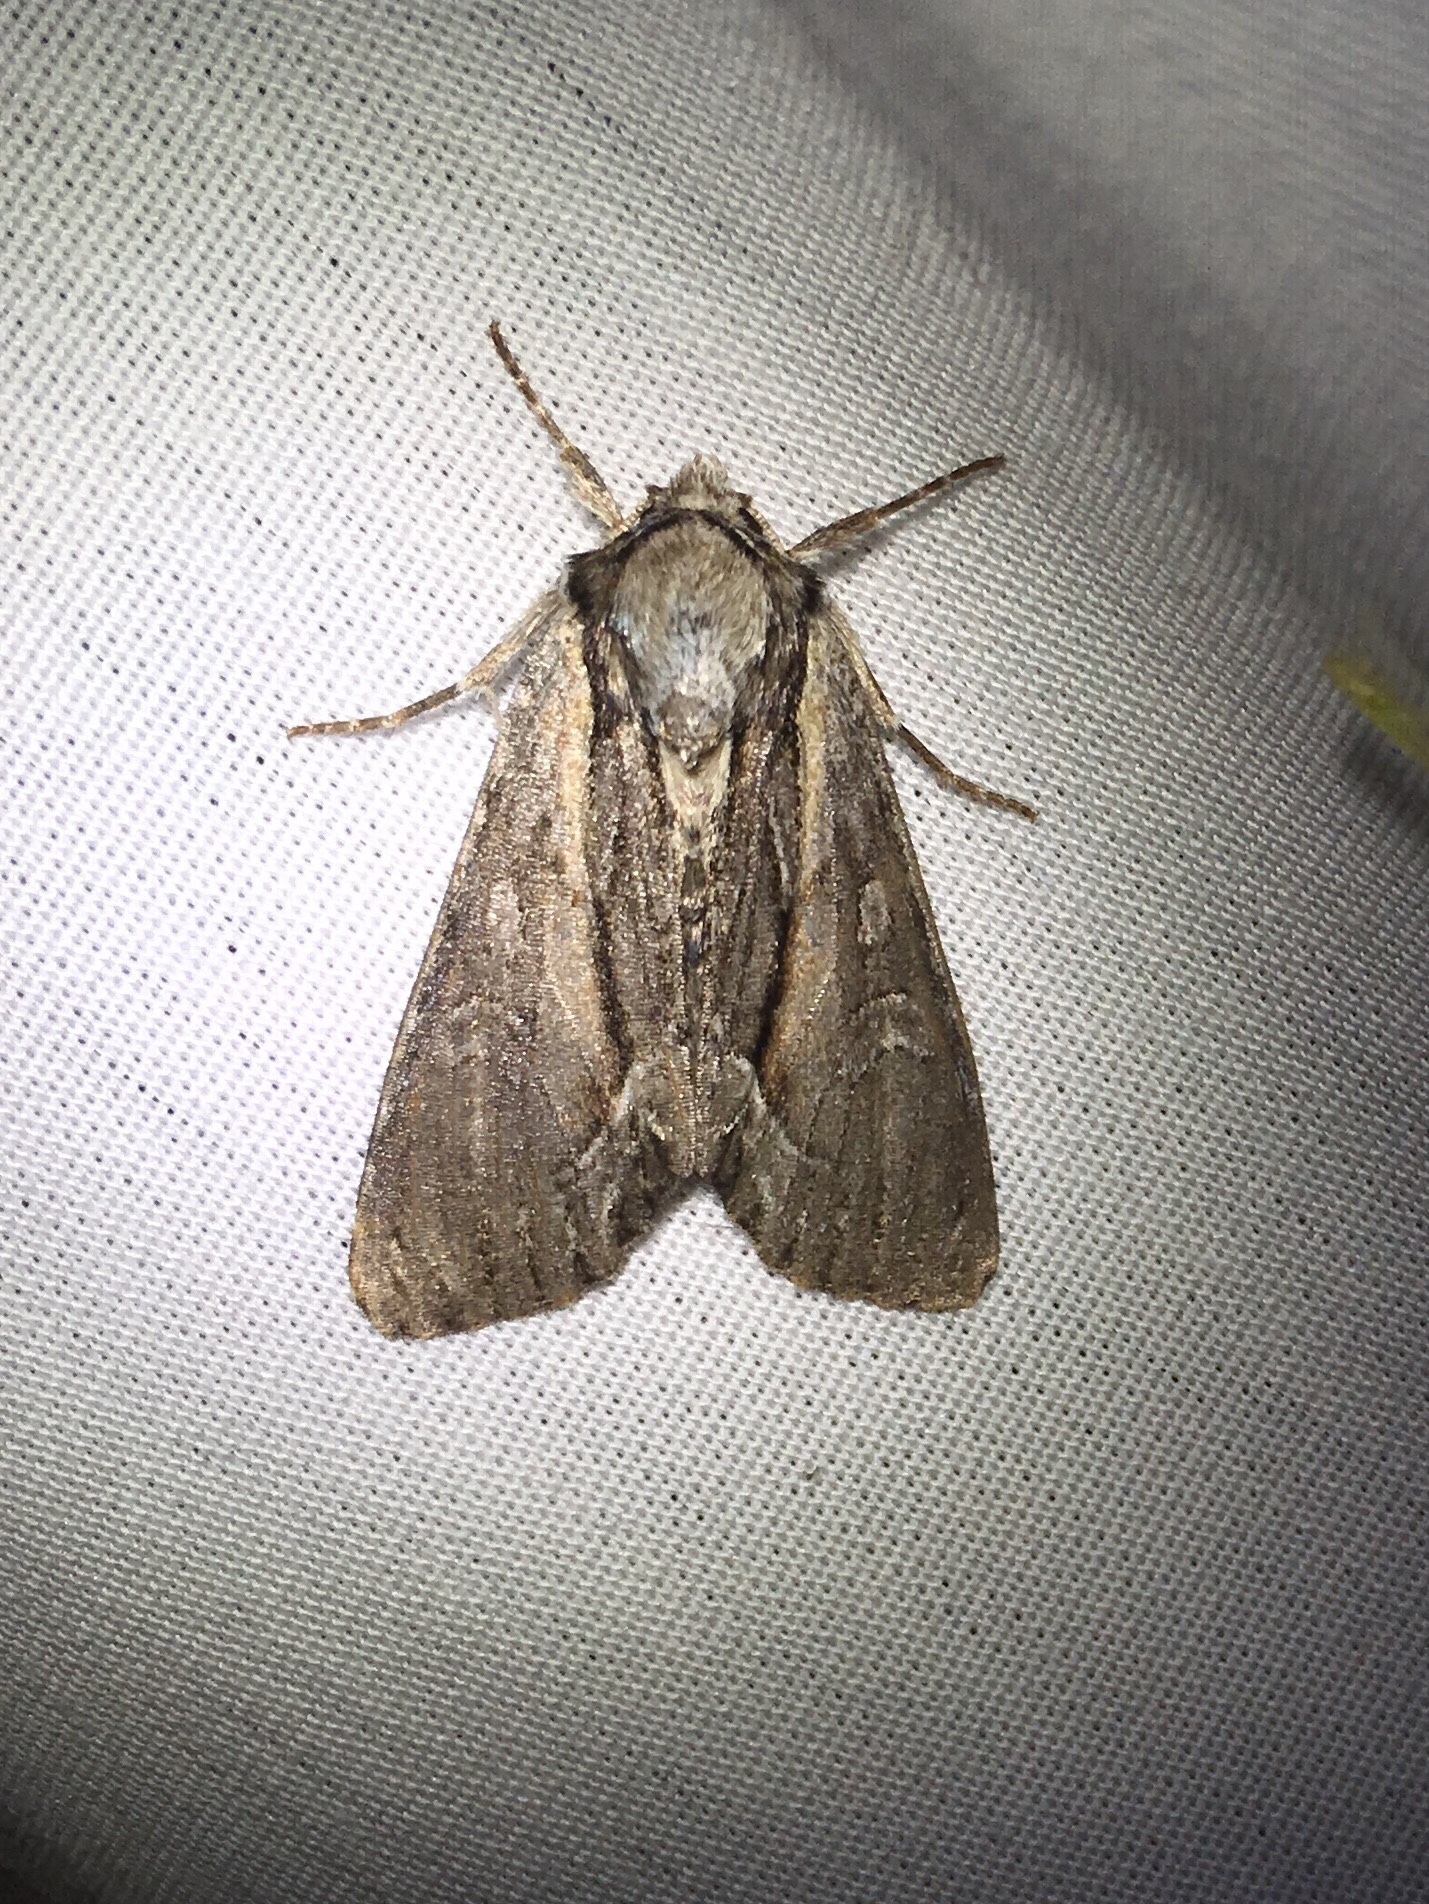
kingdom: Animalia
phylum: Arthropoda
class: Insecta
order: Lepidoptera
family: Noctuidae
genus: Hyppa
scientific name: Hyppa xylinoides
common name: Common hyppa moth
